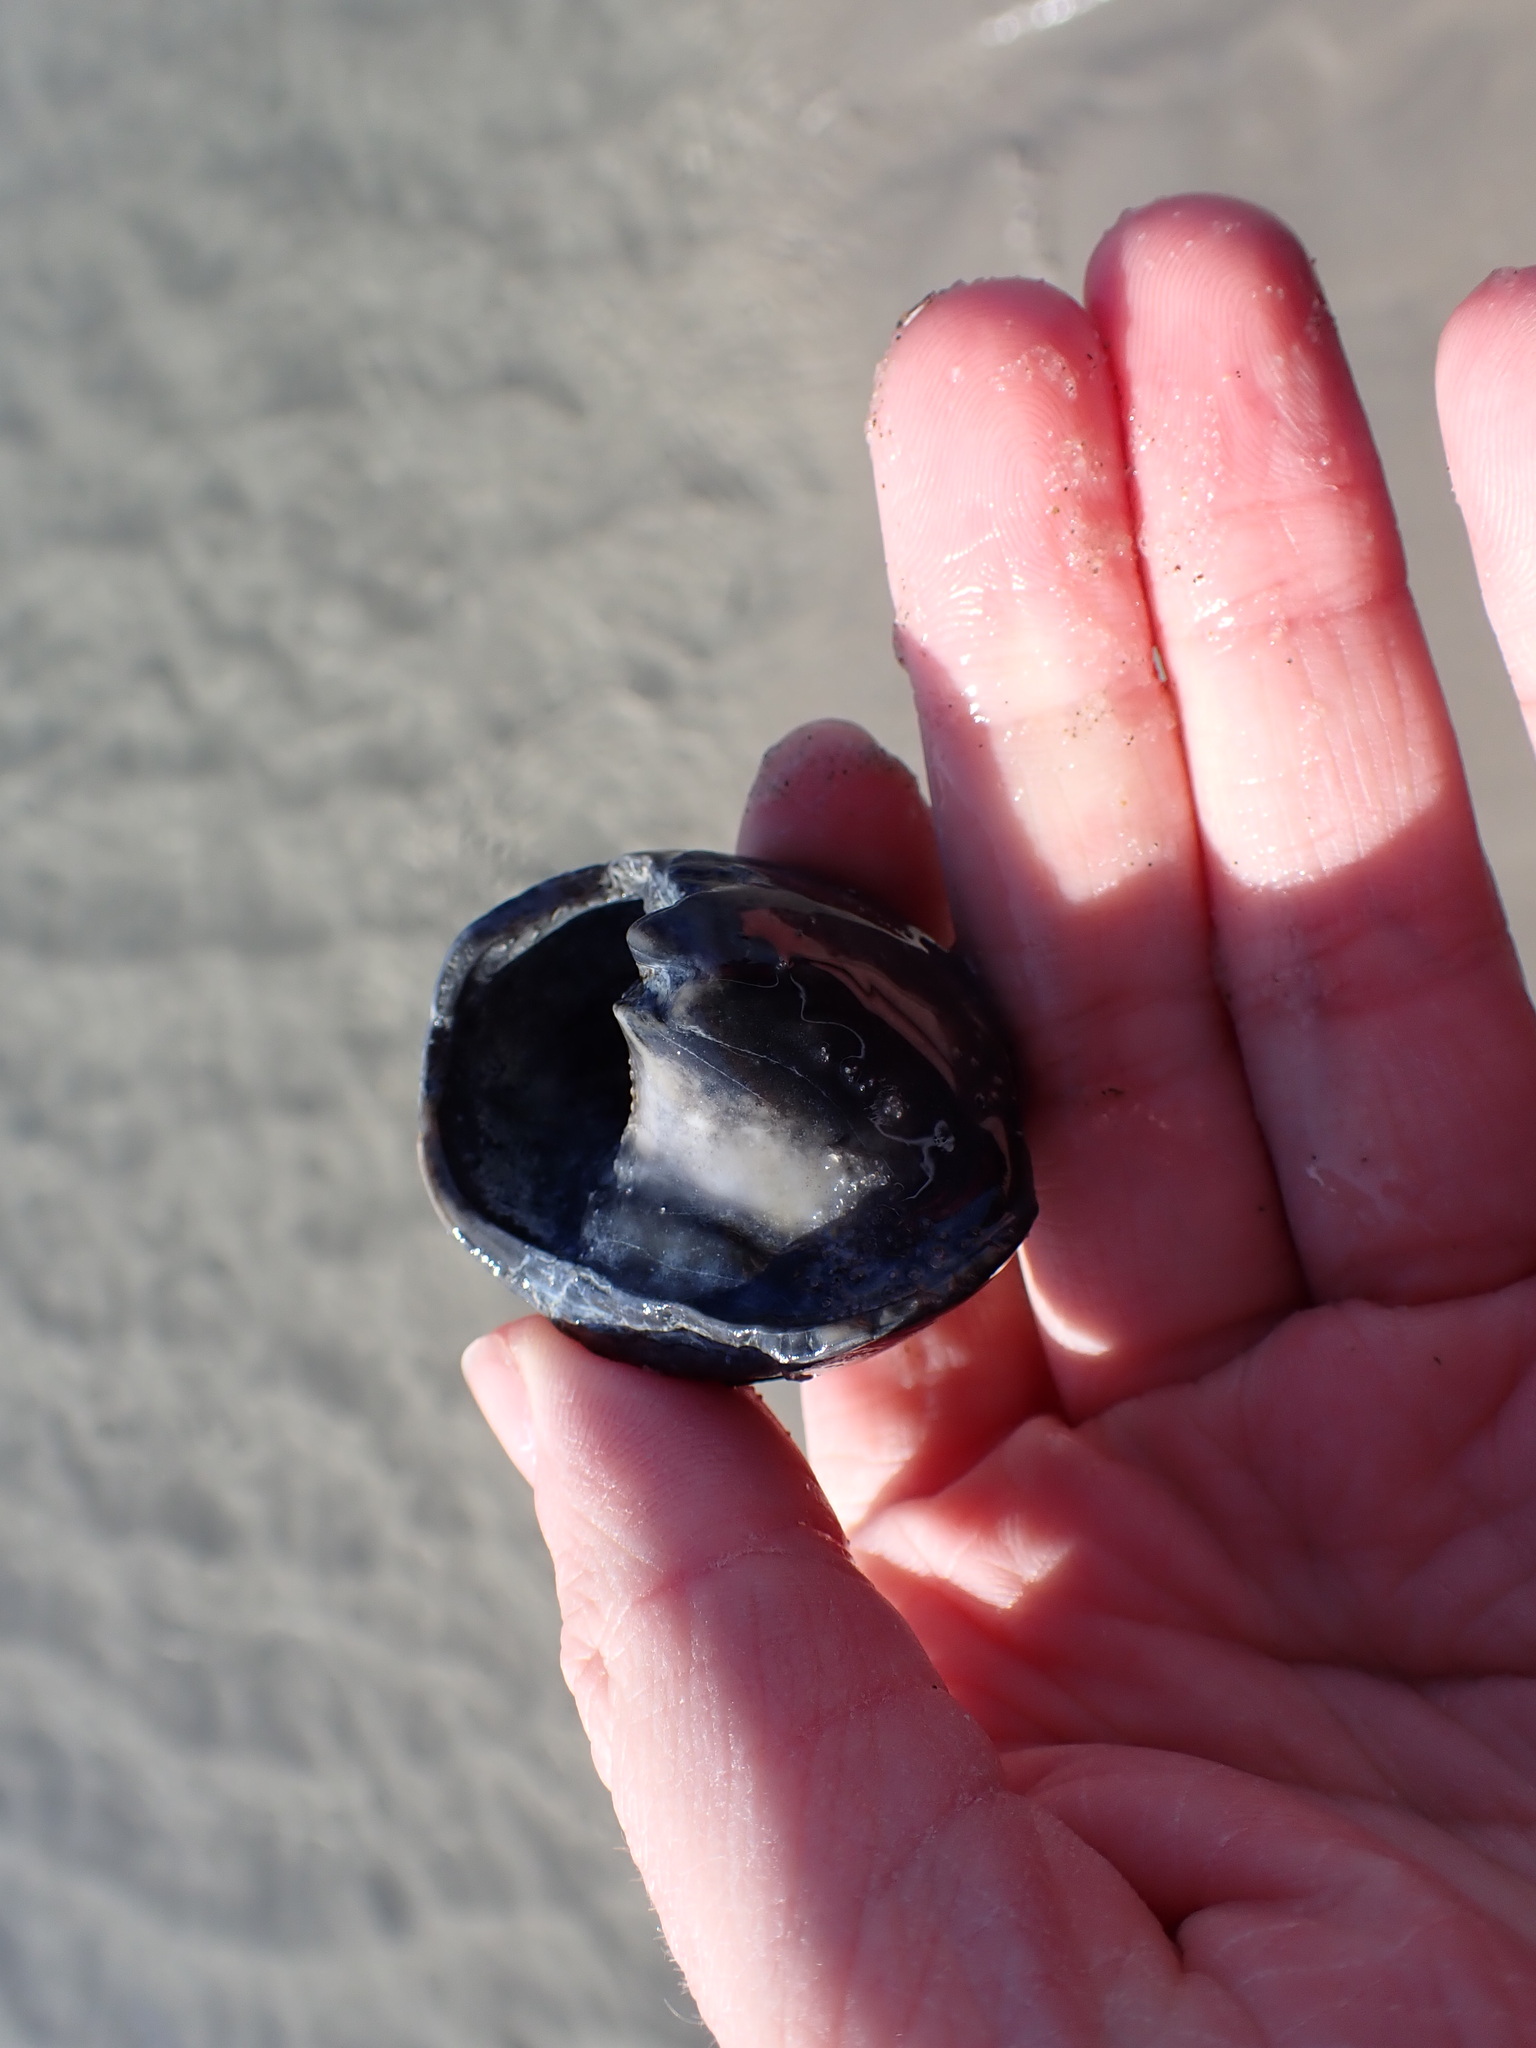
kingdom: Animalia
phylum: Mollusca
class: Gastropoda
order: Littorinimorpha
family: Naticidae
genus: Neverita
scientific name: Neverita duplicata
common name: Lobed moonsnail
